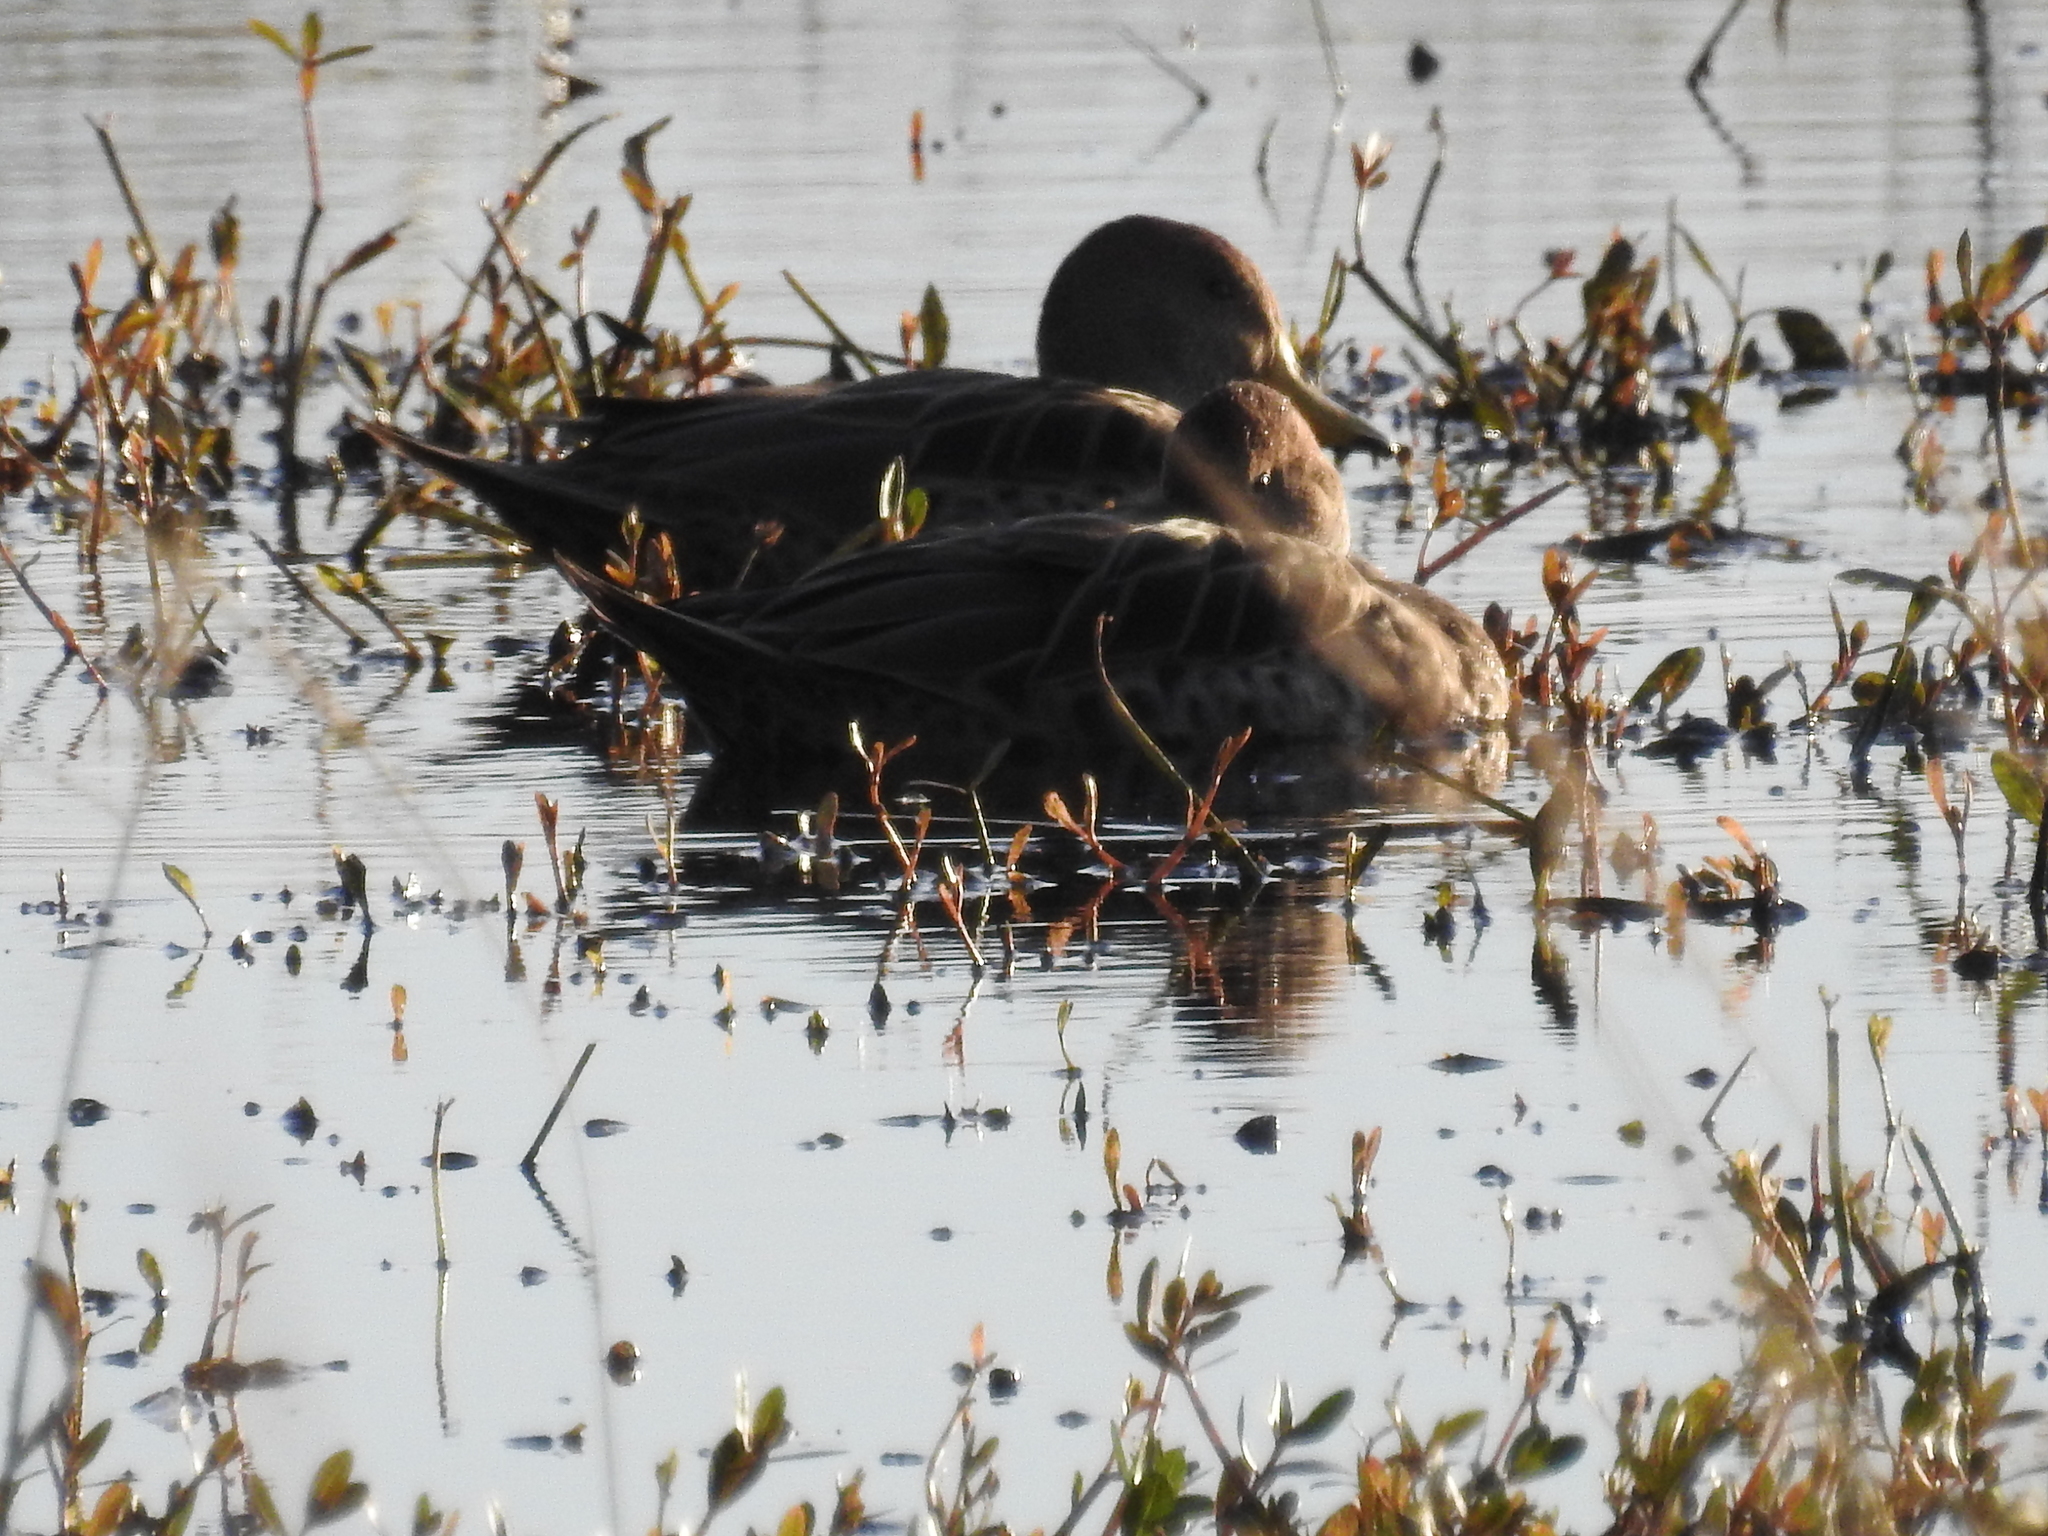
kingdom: Animalia
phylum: Chordata
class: Aves
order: Anseriformes
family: Anatidae
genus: Anas
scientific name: Anas georgica
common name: Yellow-billed pintail
